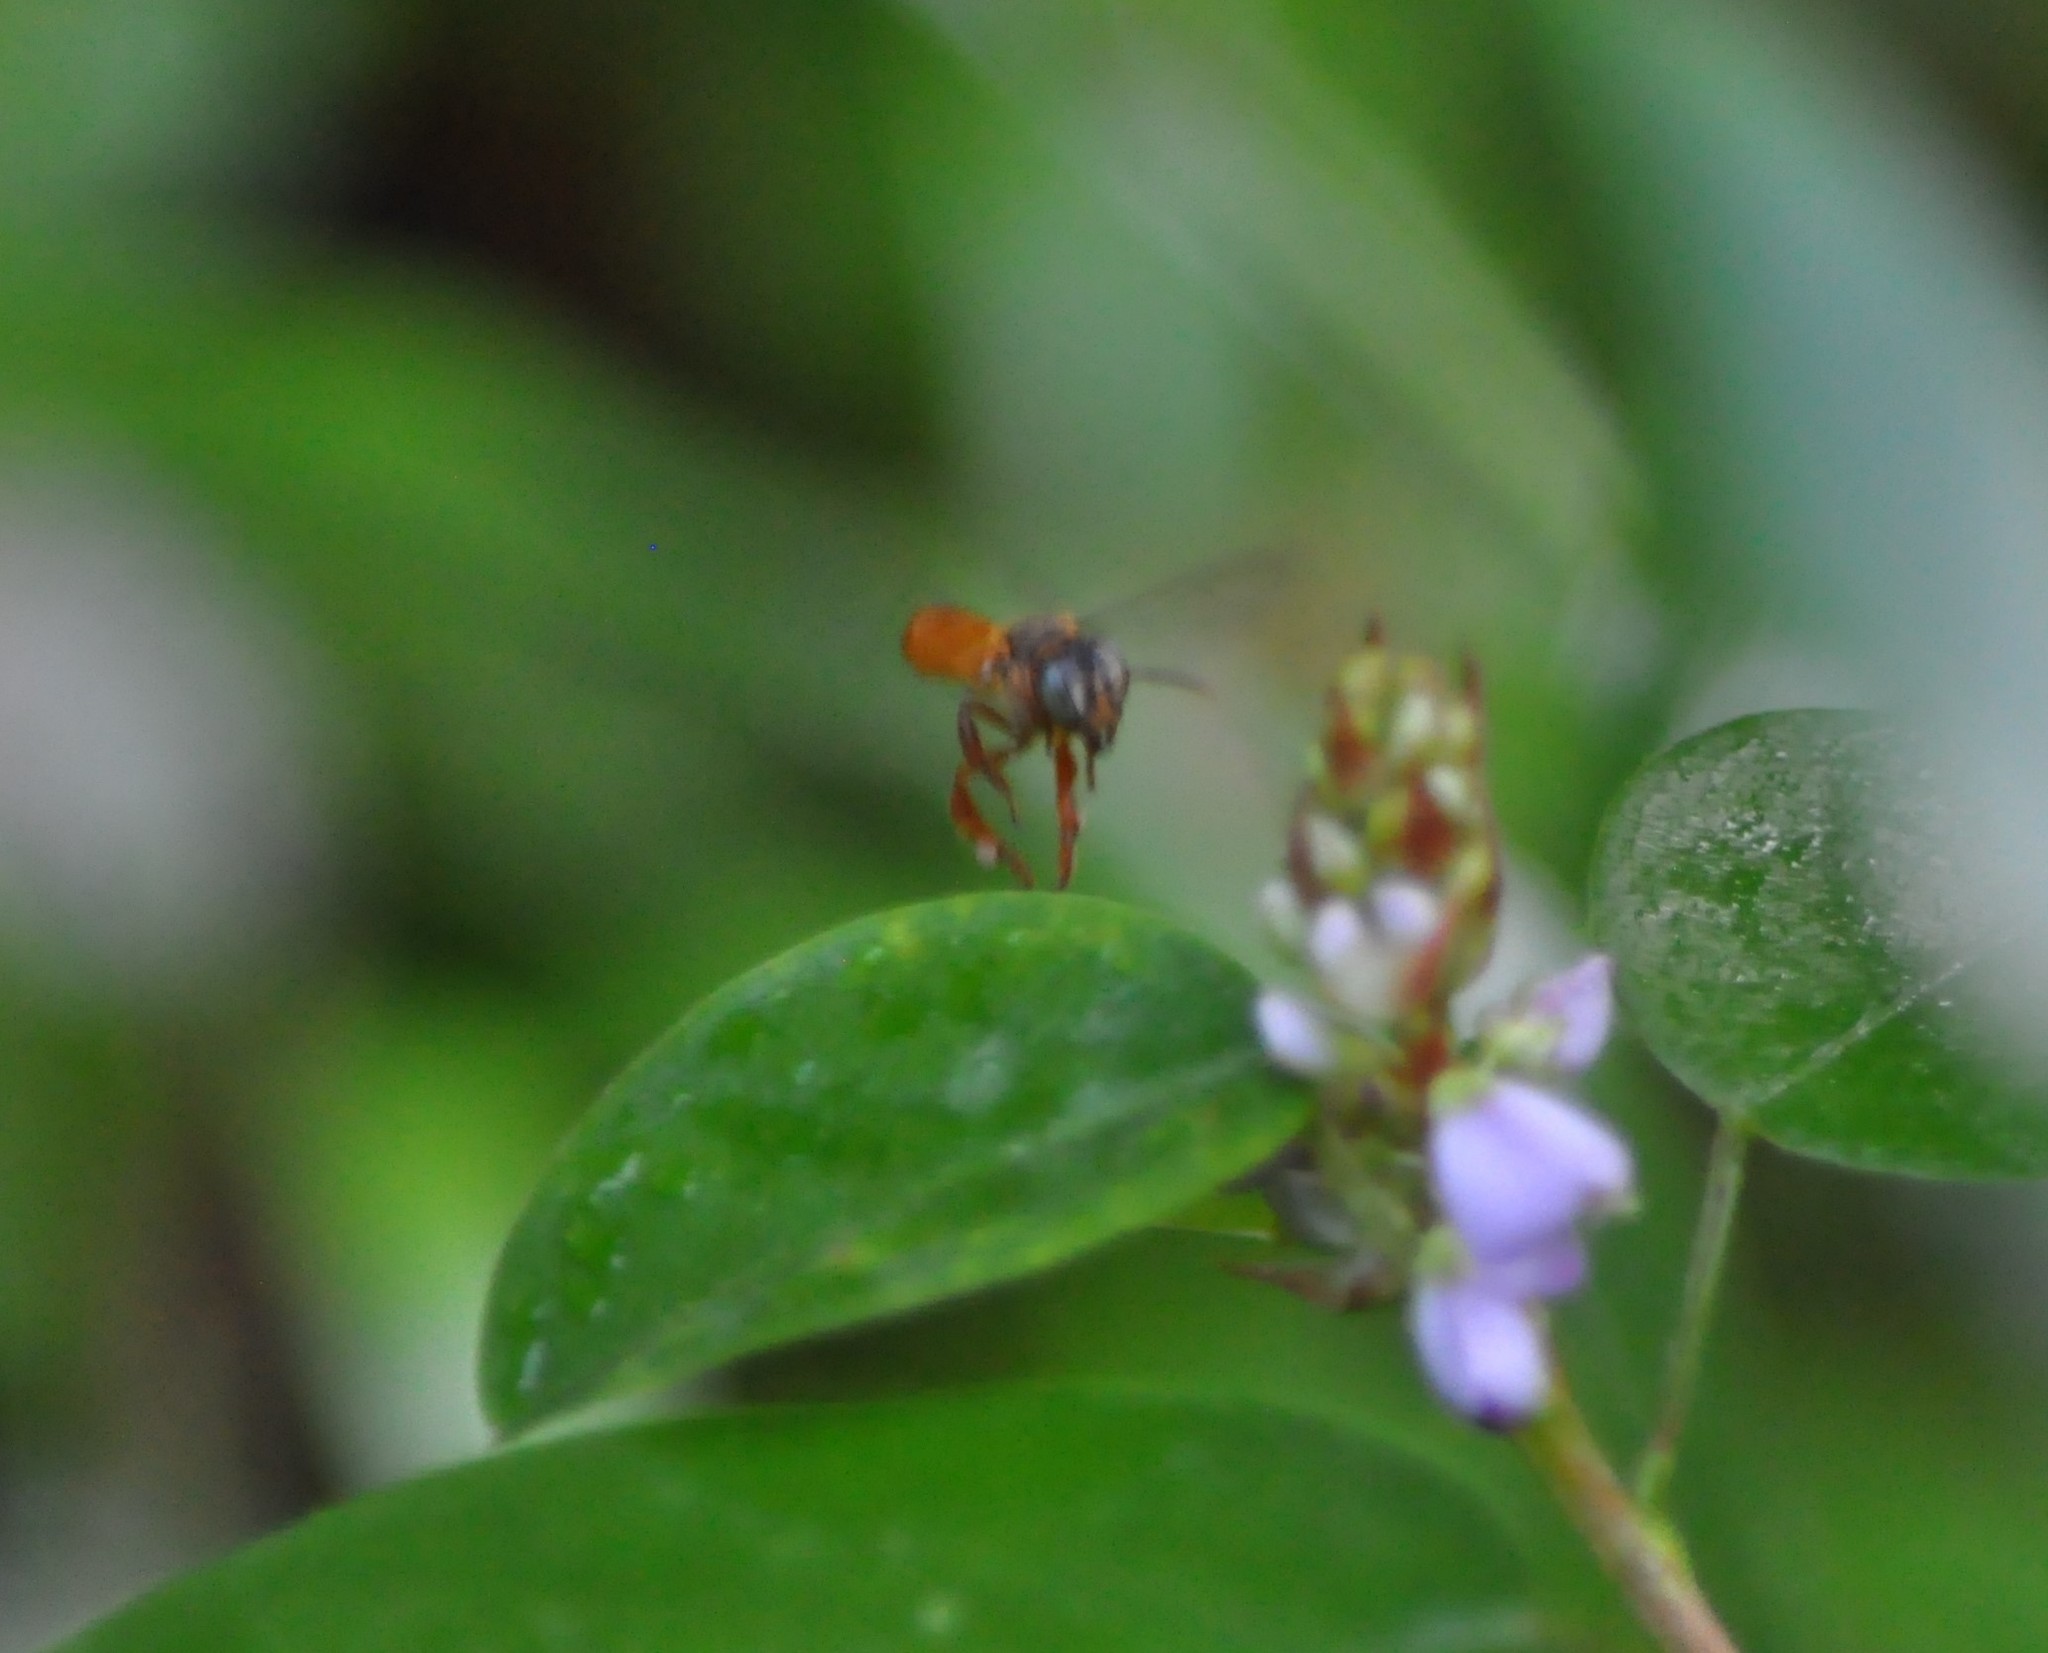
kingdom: Animalia
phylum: Arthropoda
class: Insecta
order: Hymenoptera
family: Apidae
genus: Trigona
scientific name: Trigona ferricauda
